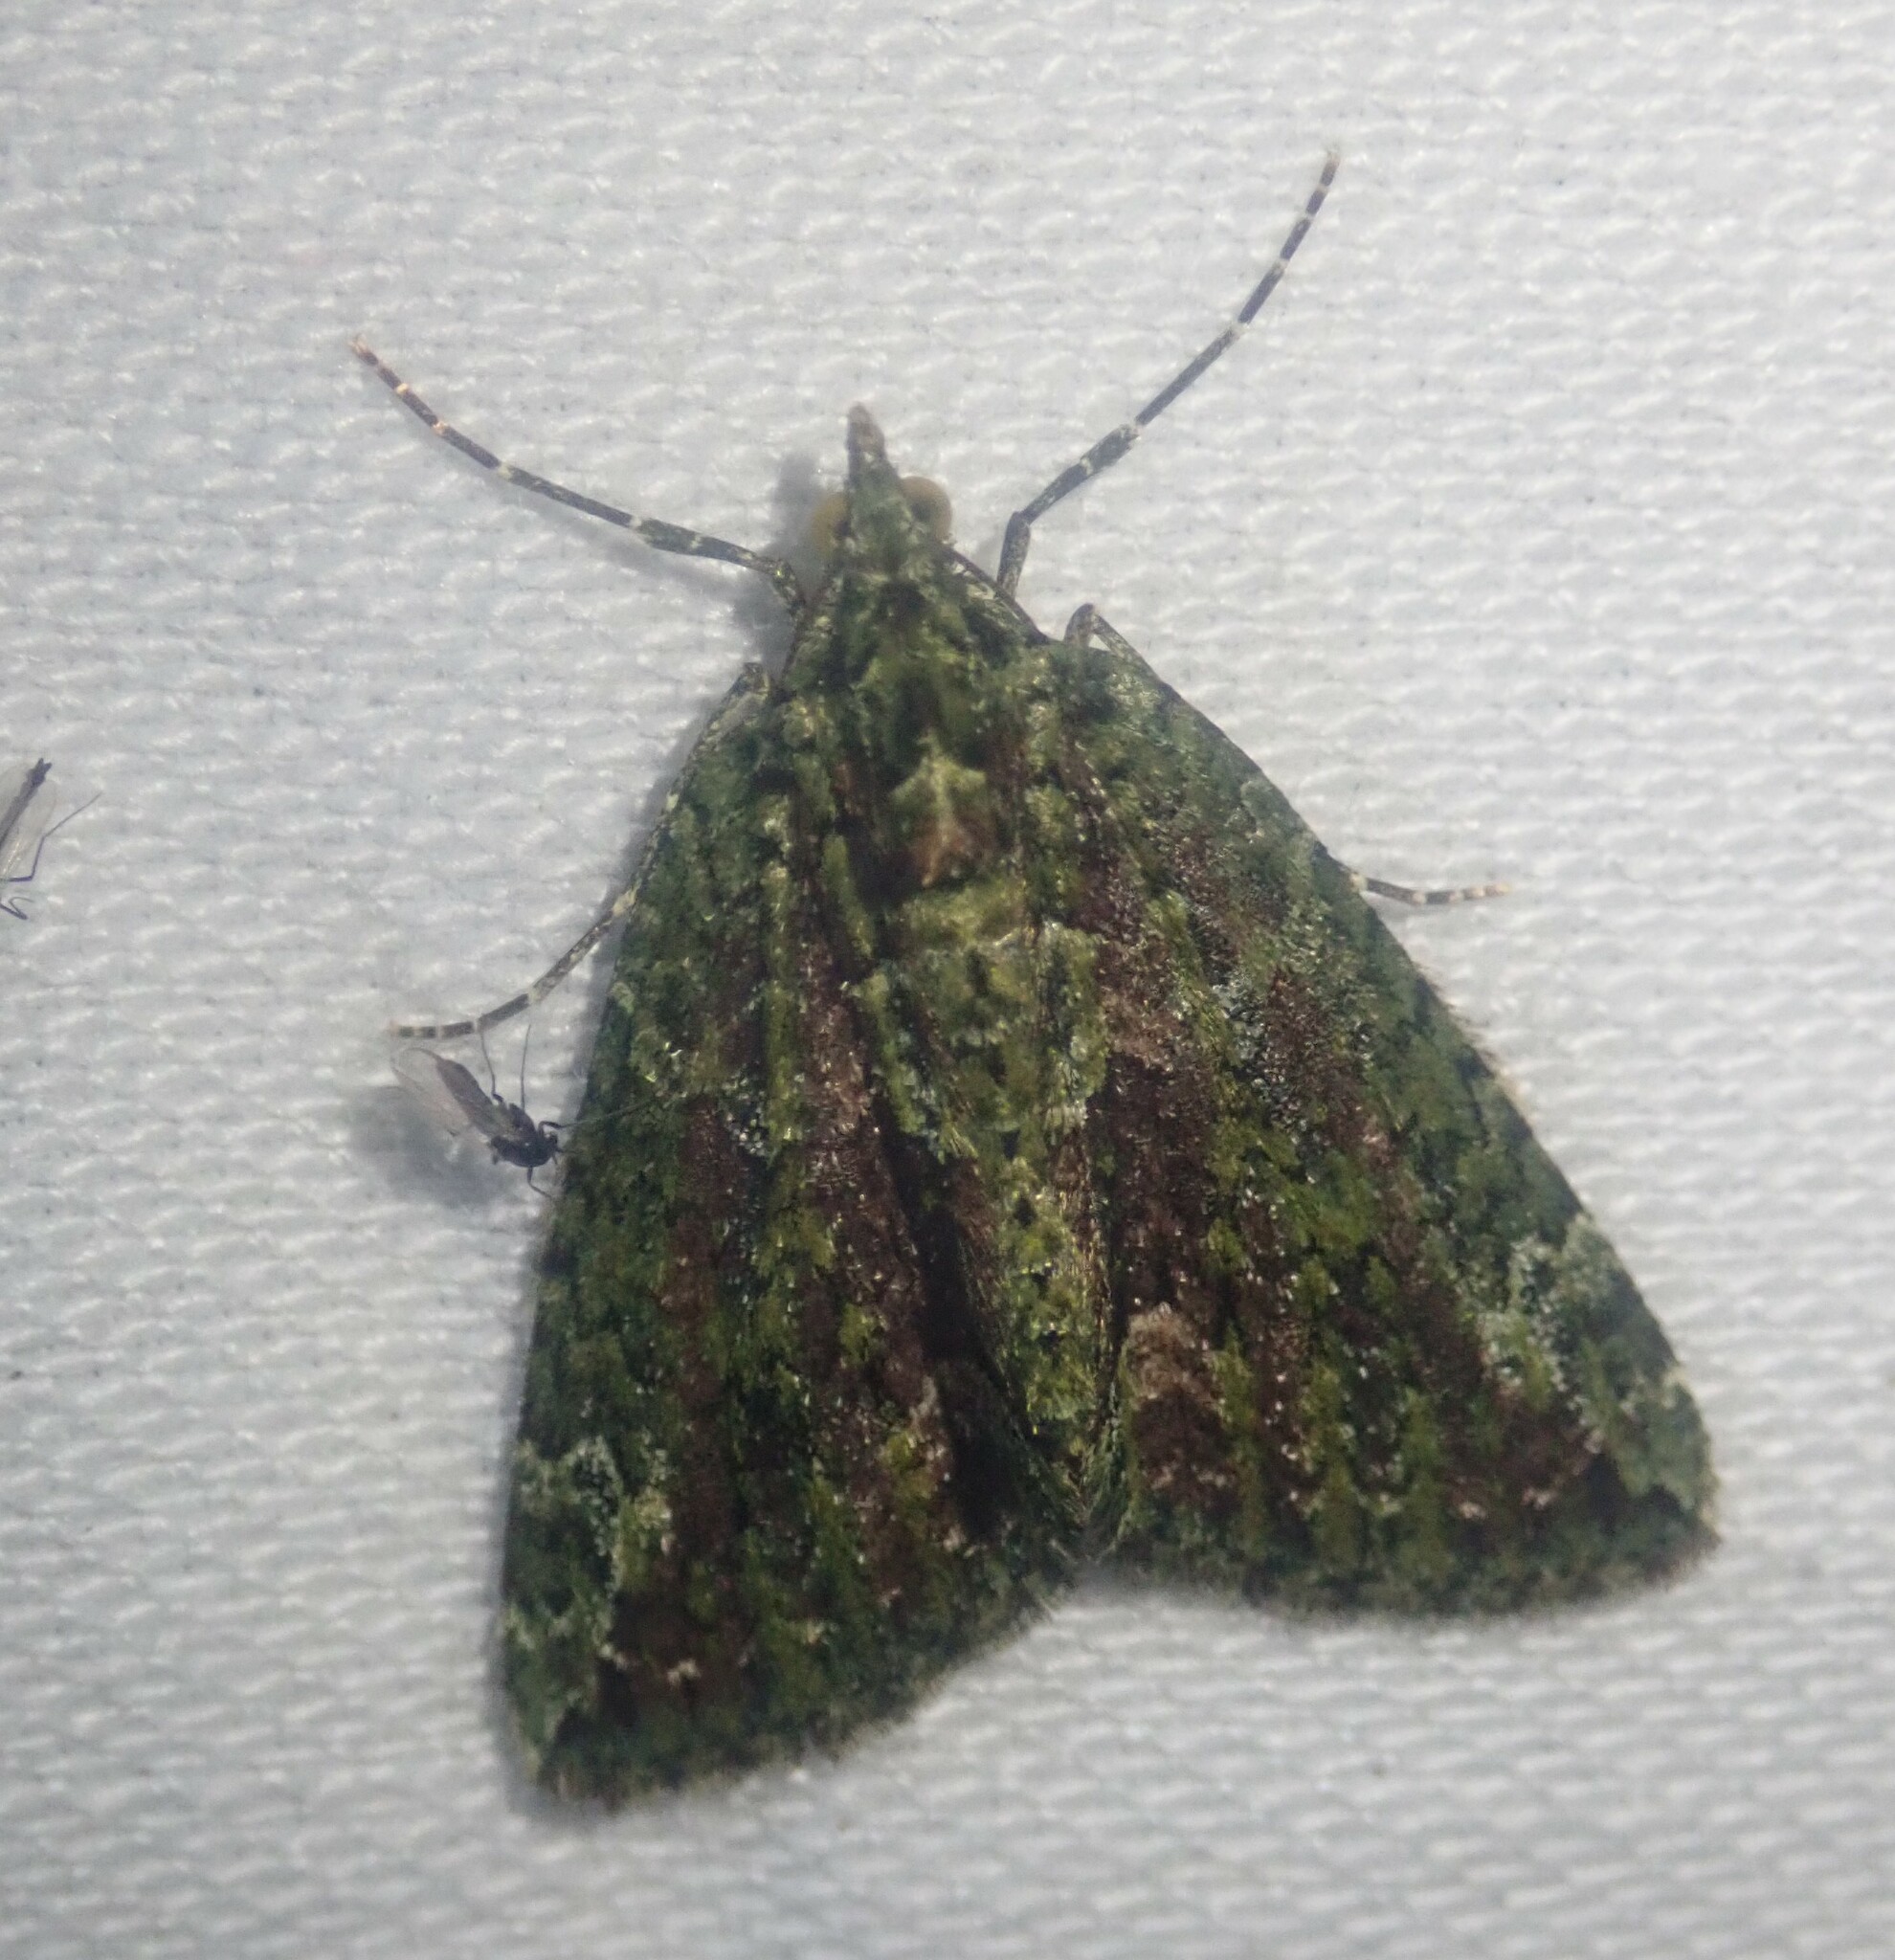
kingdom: Animalia
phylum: Arthropoda
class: Insecta
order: Lepidoptera
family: Geometridae
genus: Chloroclysta
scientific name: Chloroclysta siterata
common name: Red-green carpet
